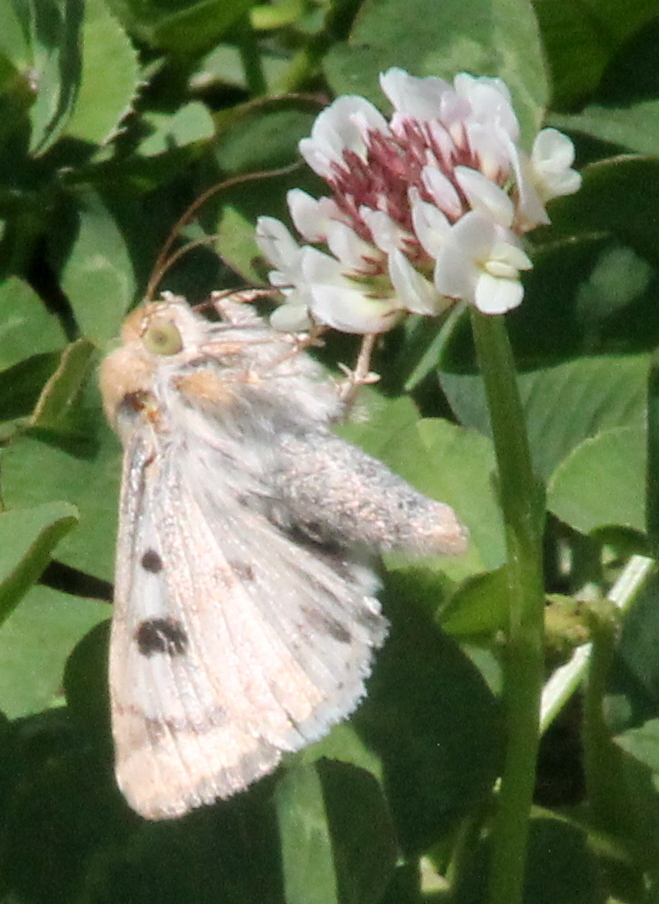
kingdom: Animalia
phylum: Arthropoda
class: Insecta
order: Lepidoptera
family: Noctuidae
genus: Heliothis
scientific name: Heliothis phloxiphaga
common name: Darker spotted straw moth
